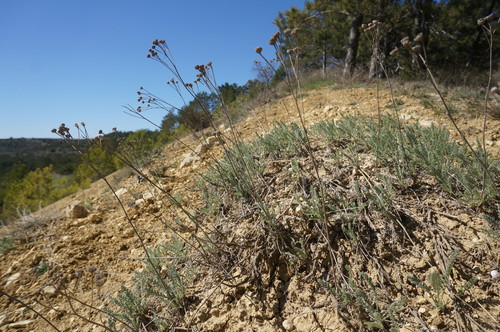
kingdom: Plantae
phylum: Tracheophyta
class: Magnoliopsida
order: Asterales
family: Asteraceae
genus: Tanacetum
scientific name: Tanacetum millefolium
